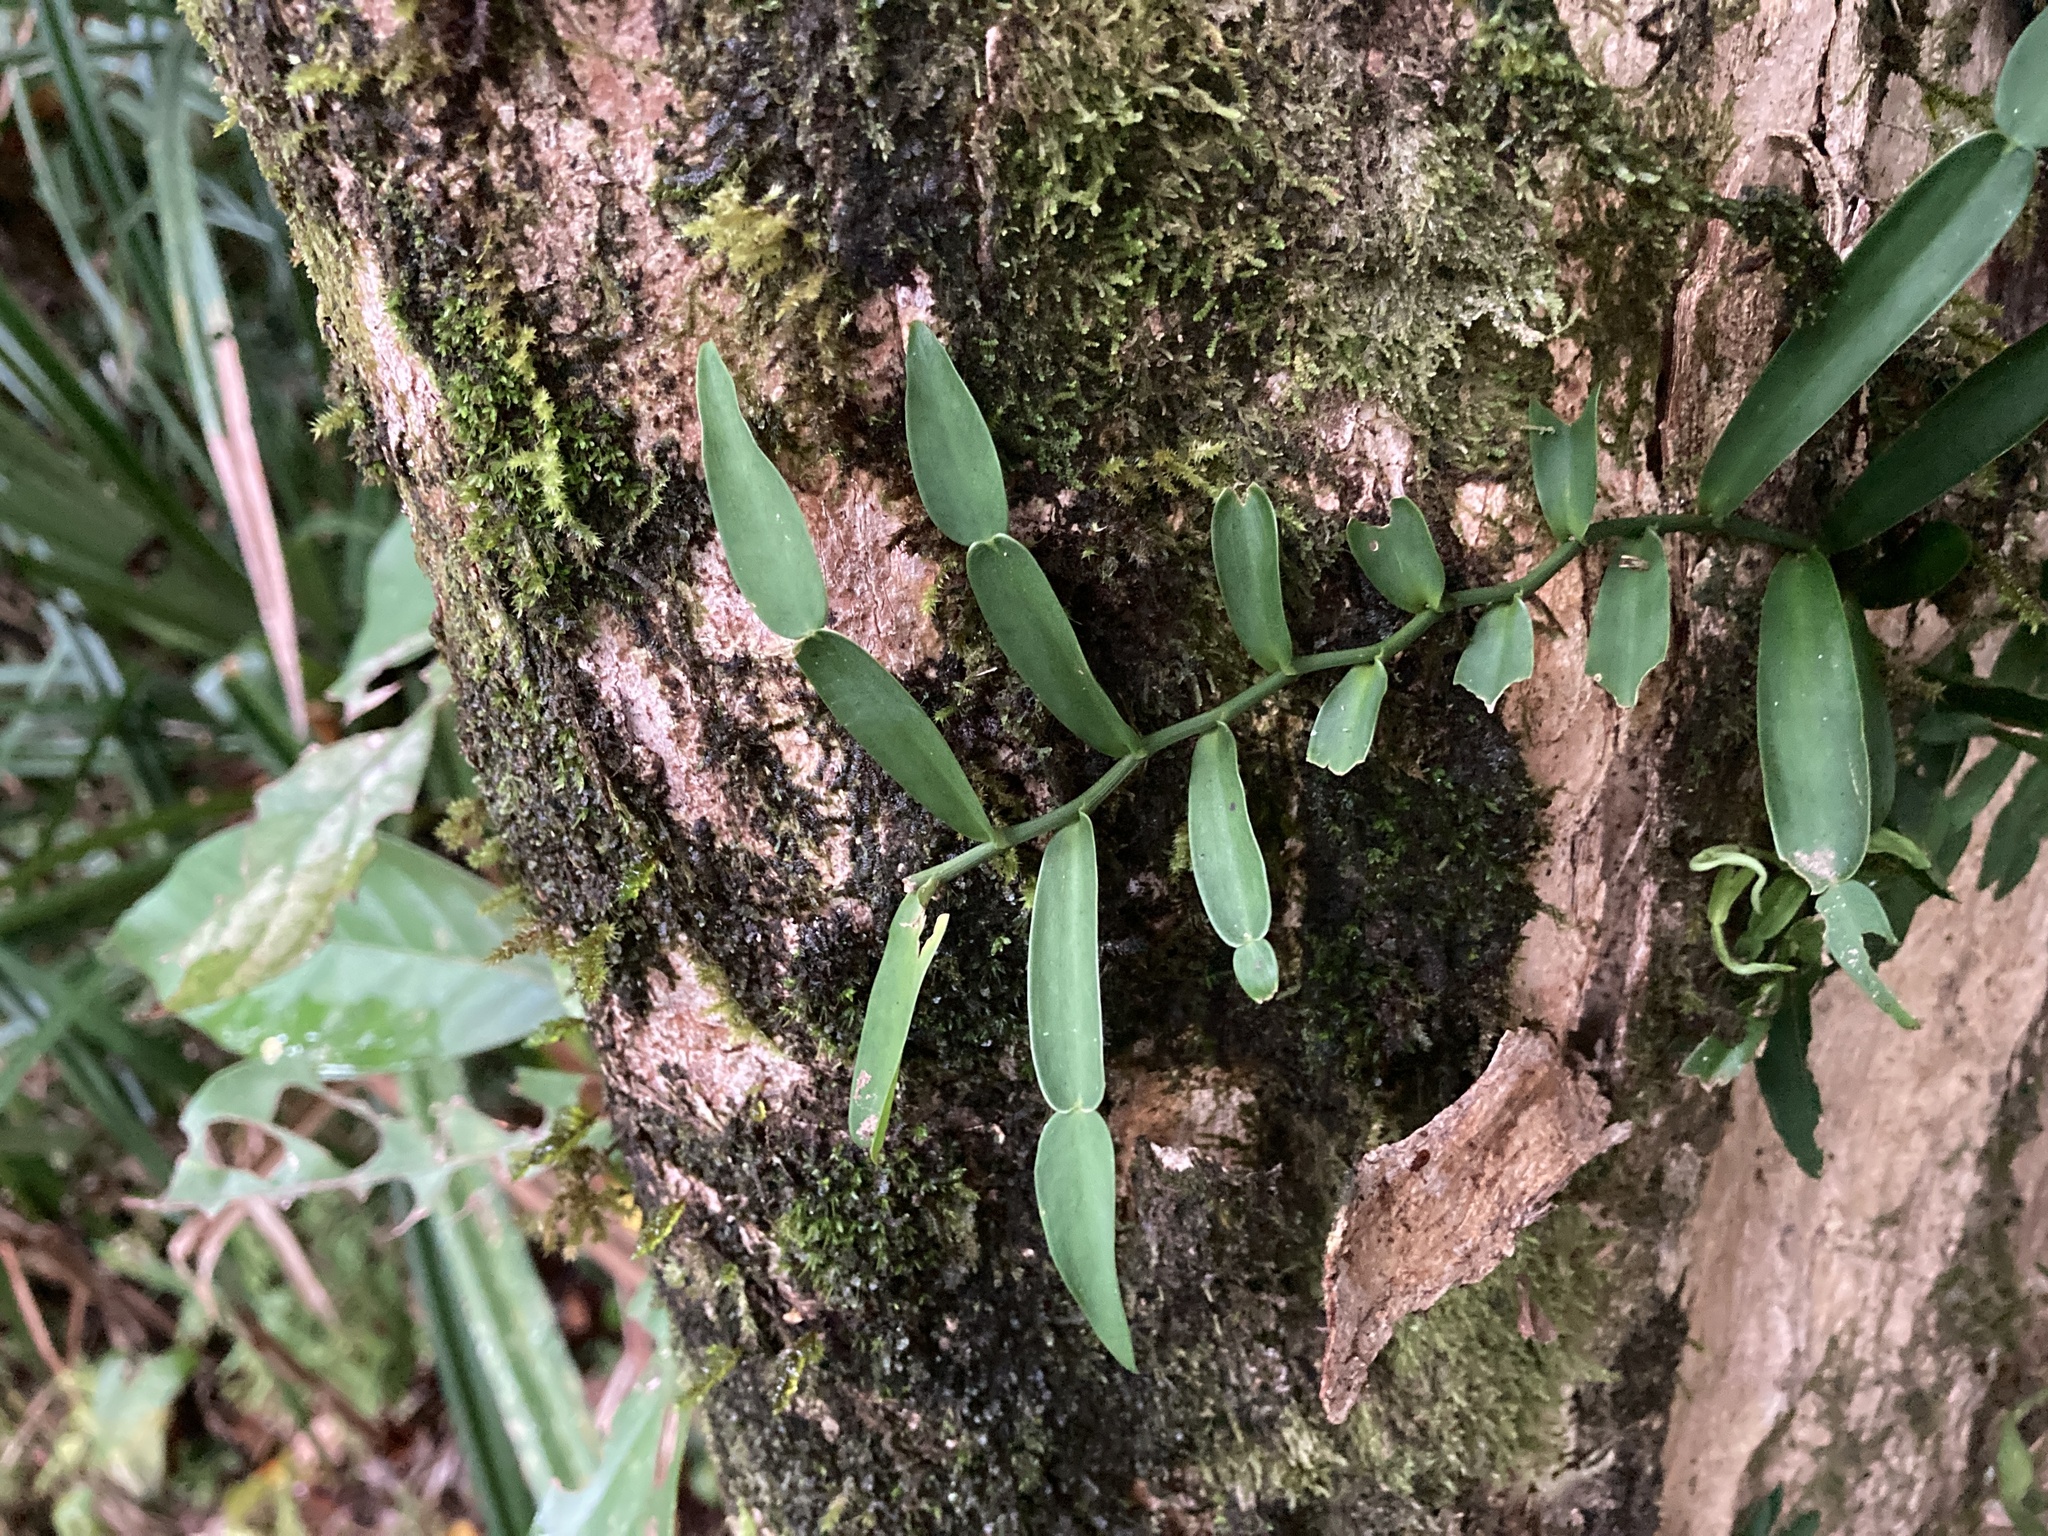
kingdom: Plantae
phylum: Tracheophyta
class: Liliopsida
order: Alismatales
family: Araceae
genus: Pothos
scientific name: Pothos longipes
